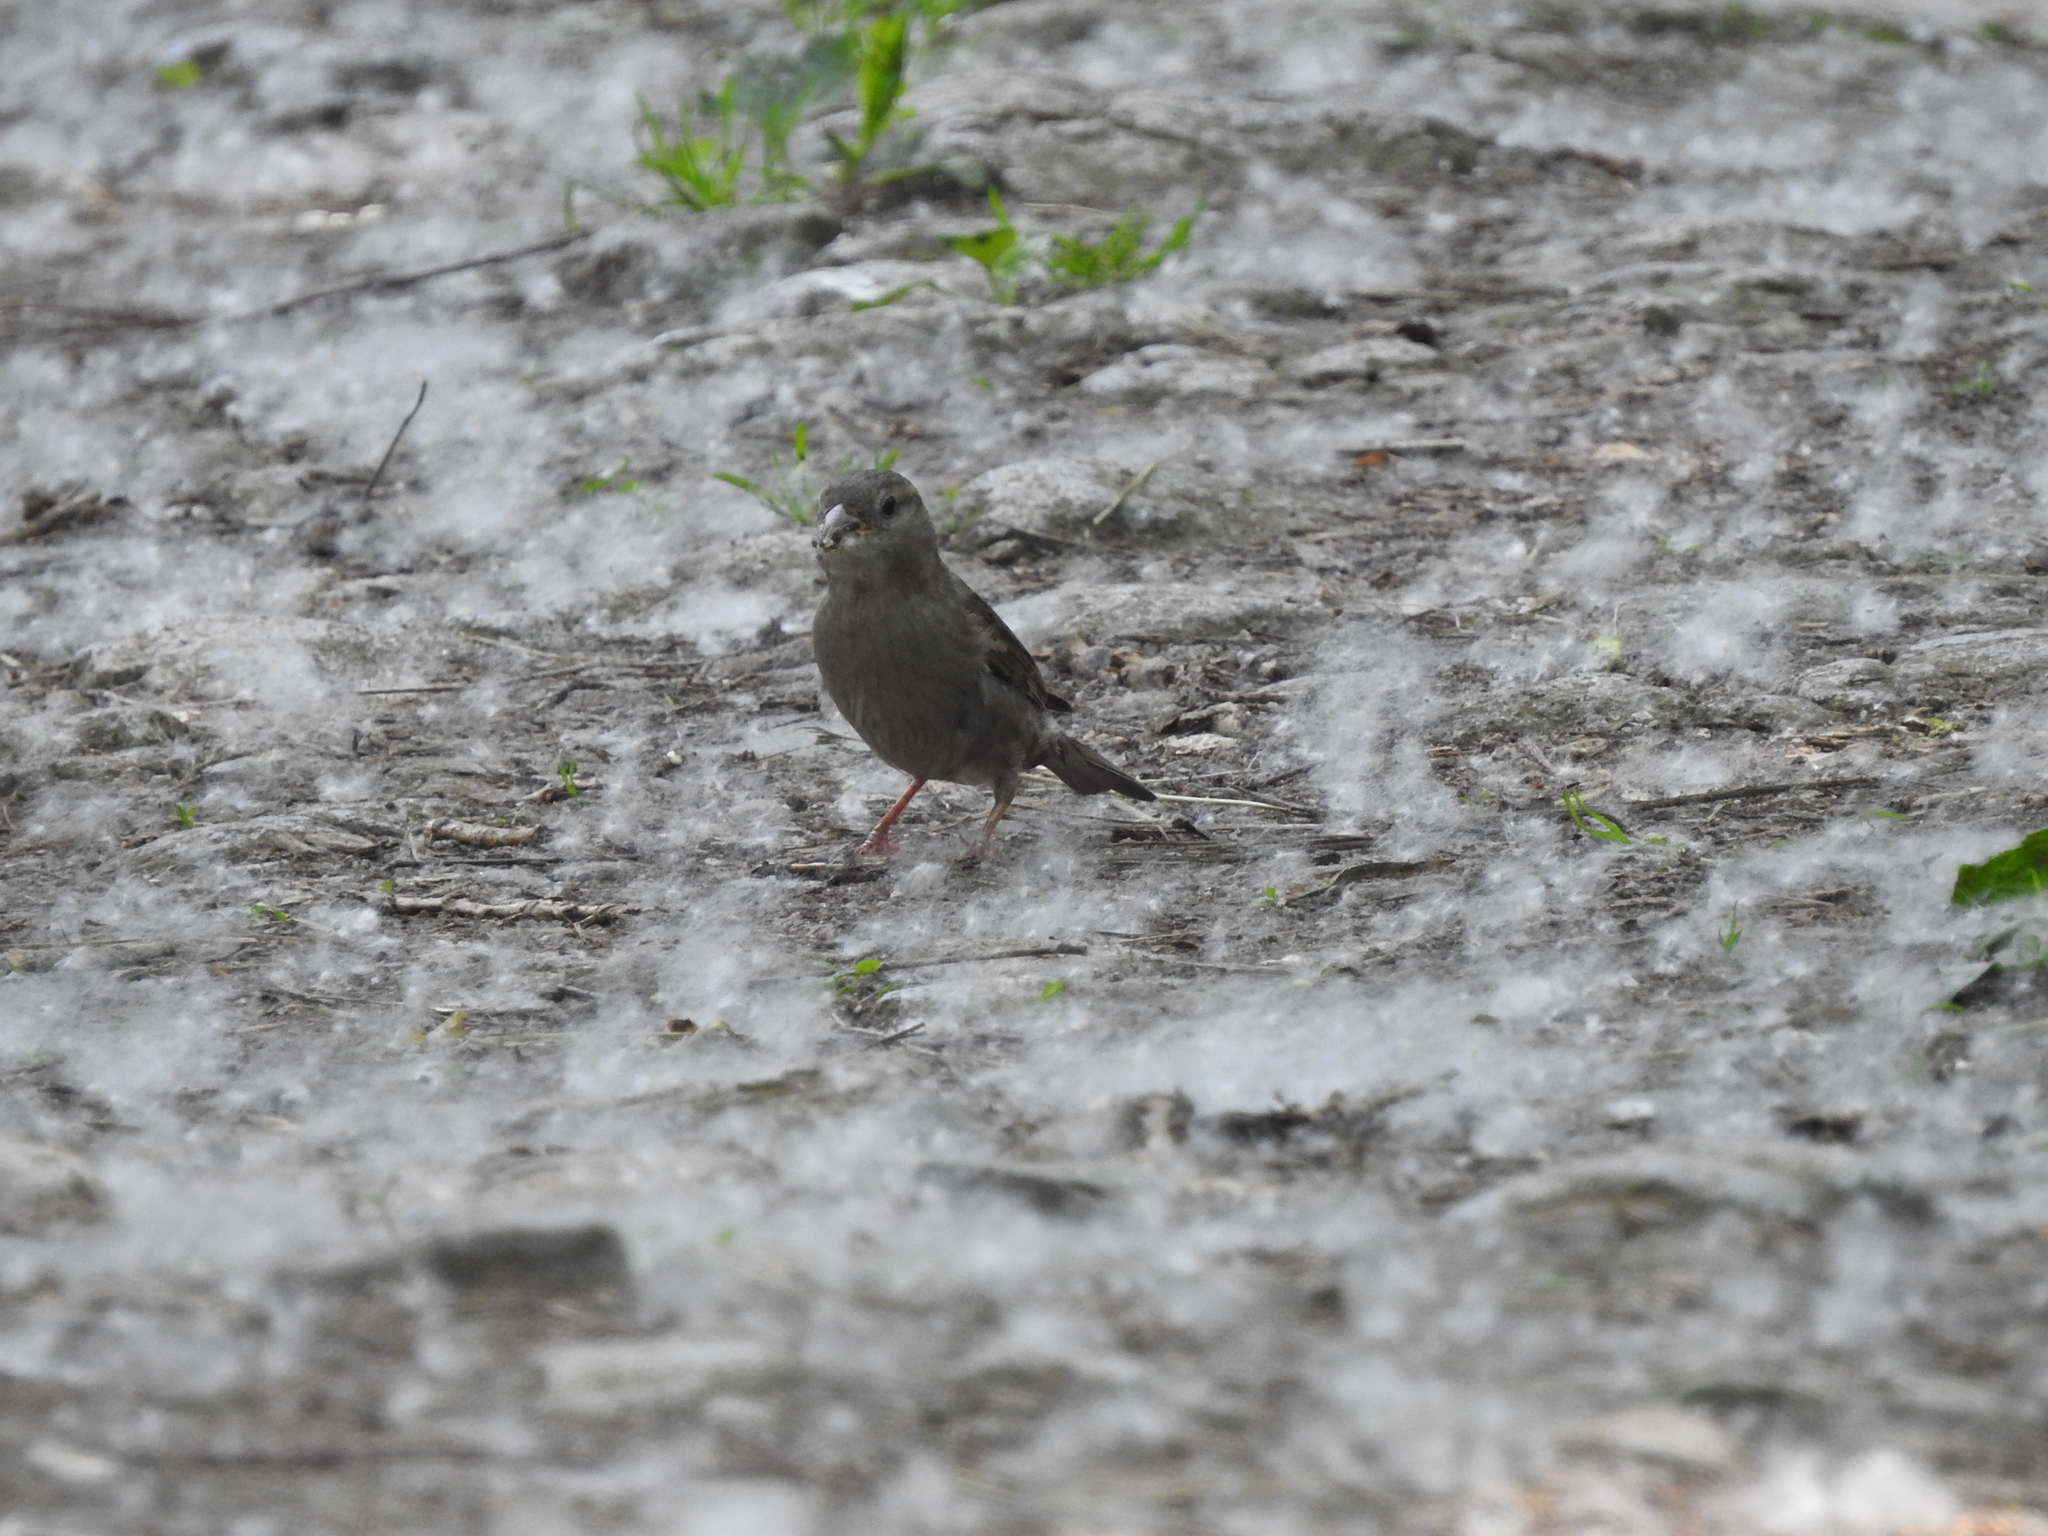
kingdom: Animalia
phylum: Chordata
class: Aves
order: Passeriformes
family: Passeridae
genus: Passer
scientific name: Passer domesticus
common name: House sparrow
